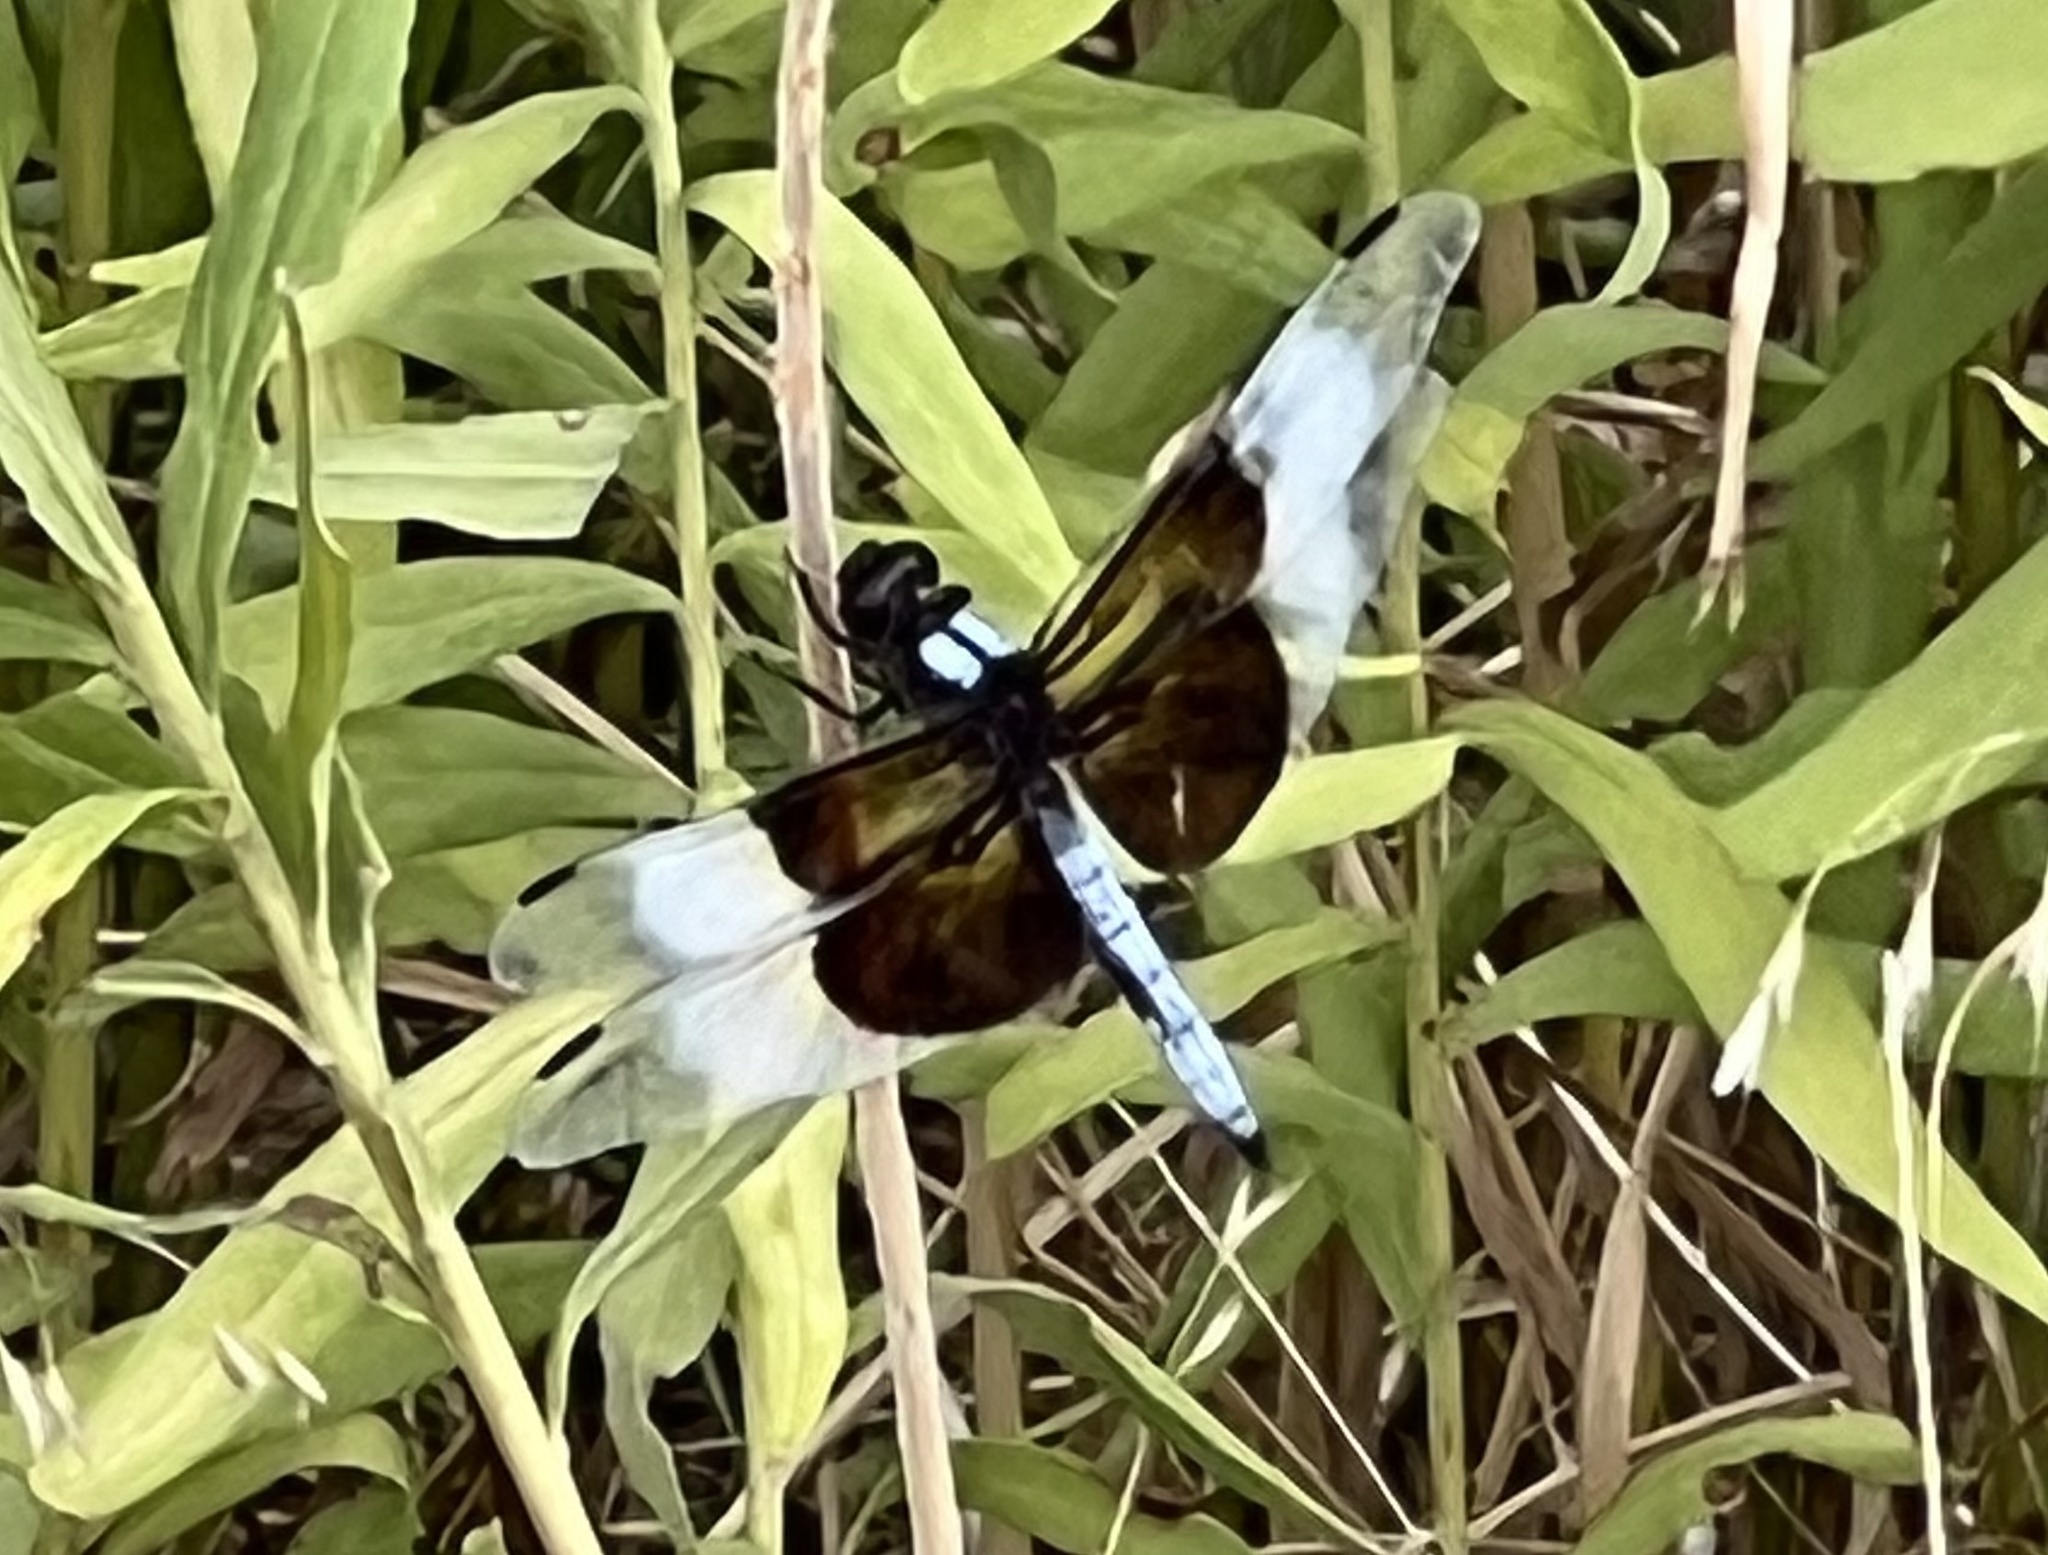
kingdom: Animalia
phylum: Arthropoda
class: Insecta
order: Odonata
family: Libellulidae
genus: Libellula
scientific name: Libellula luctuosa
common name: Widow skimmer
